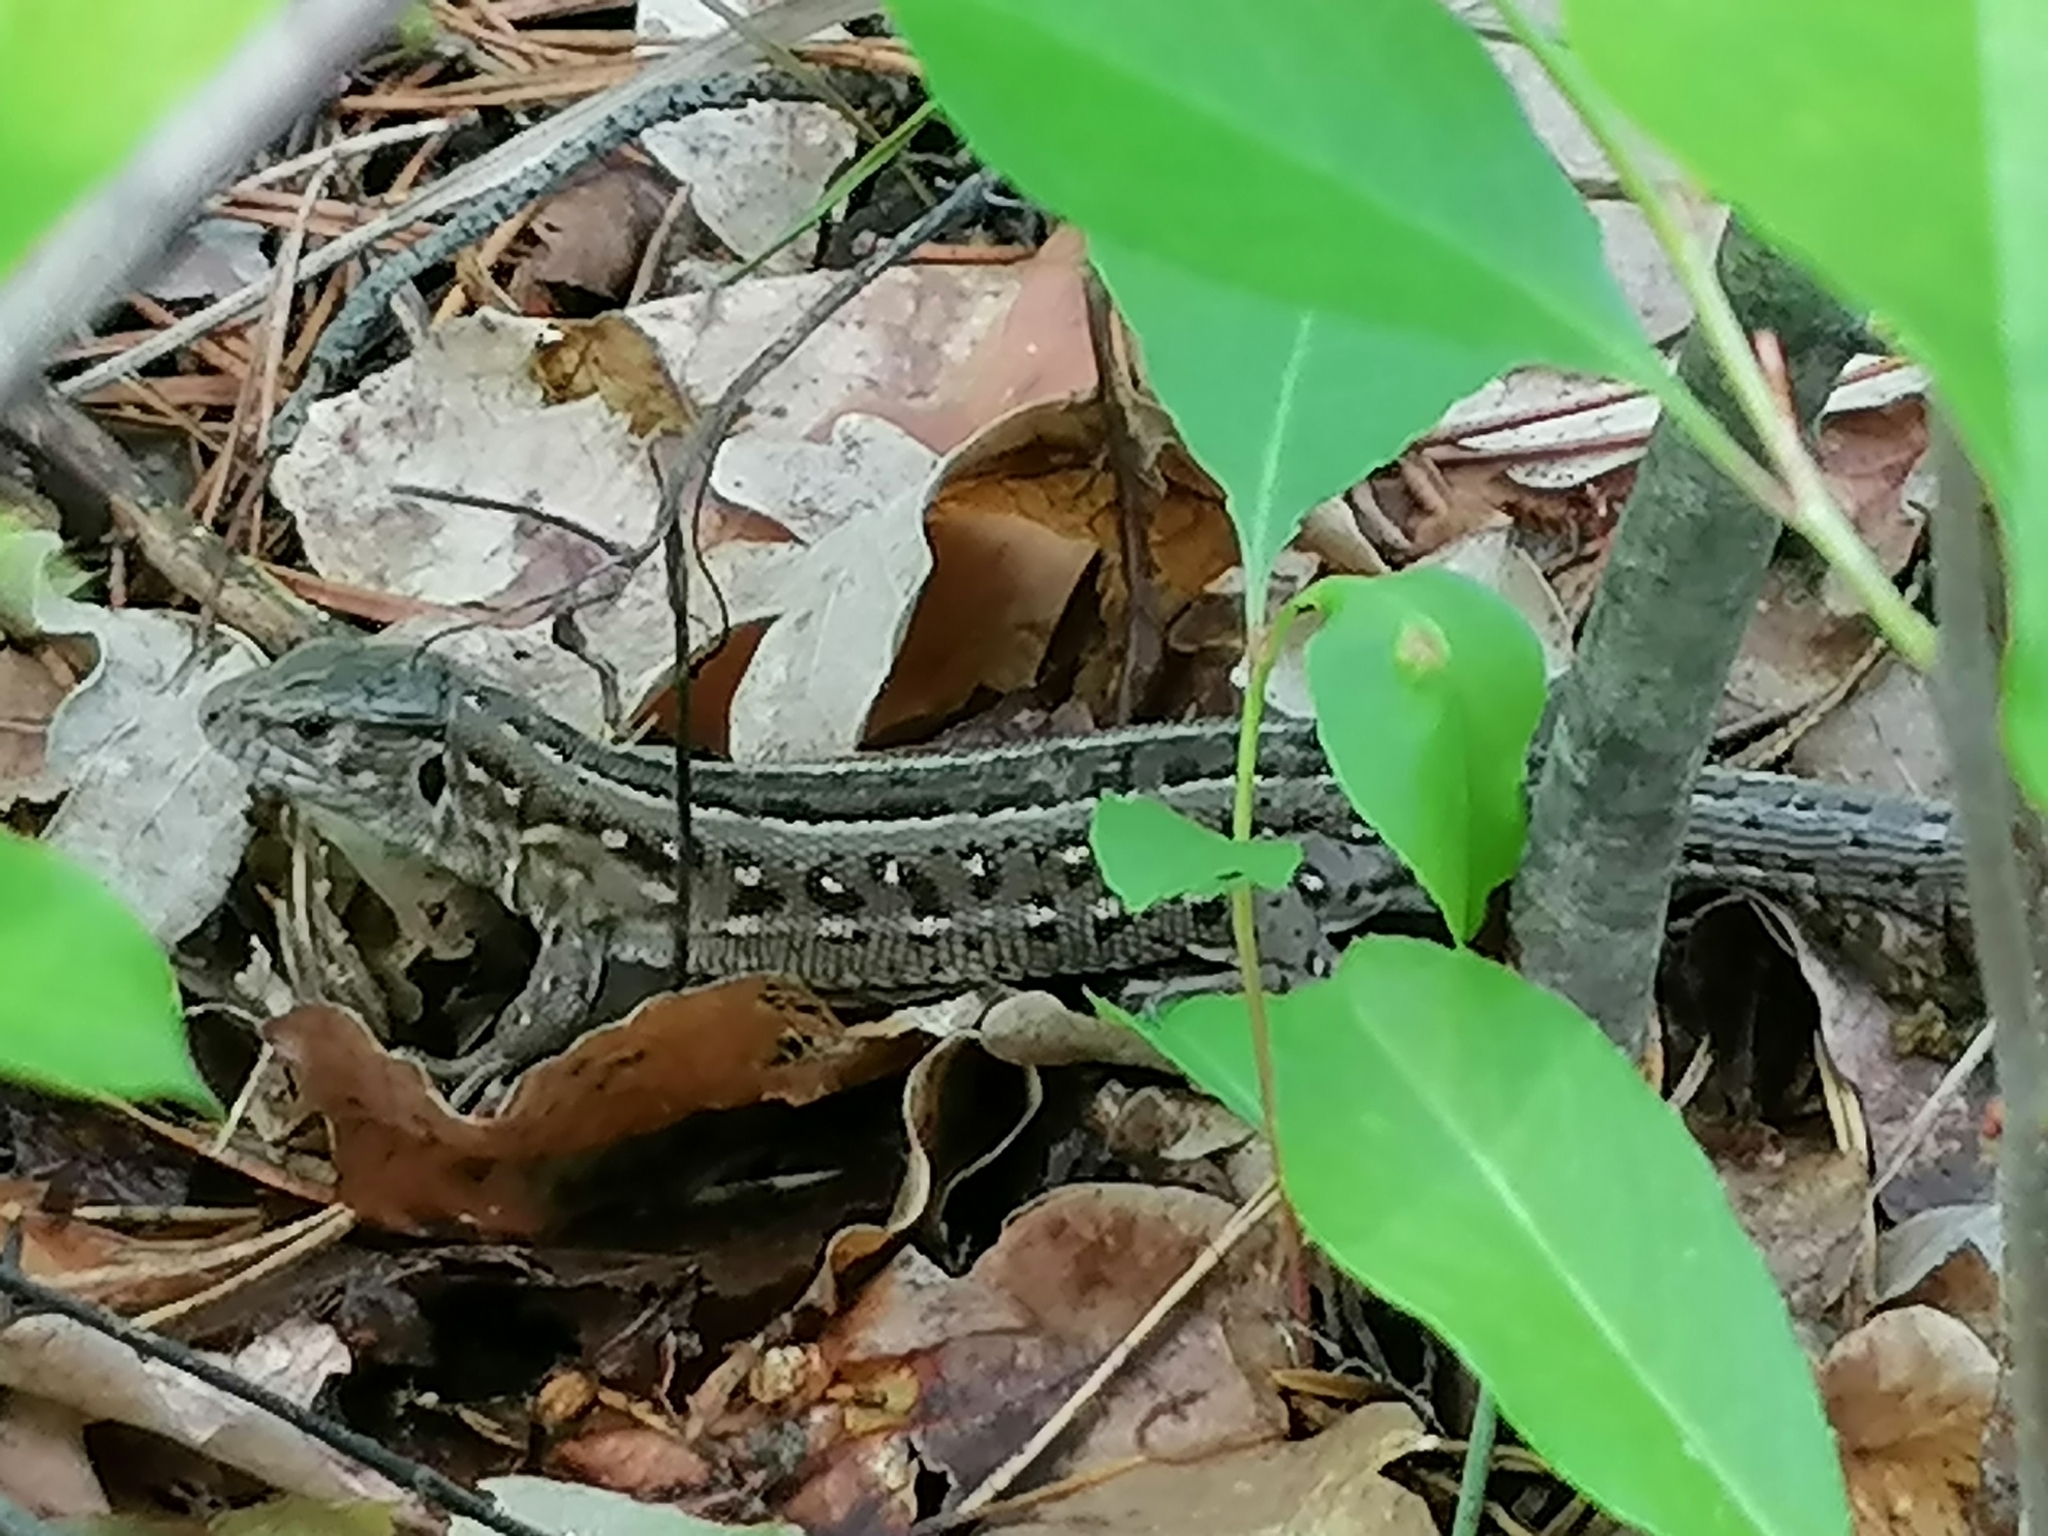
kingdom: Animalia
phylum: Chordata
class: Squamata
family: Lacertidae
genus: Lacerta
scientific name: Lacerta agilis
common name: Sand lizard
